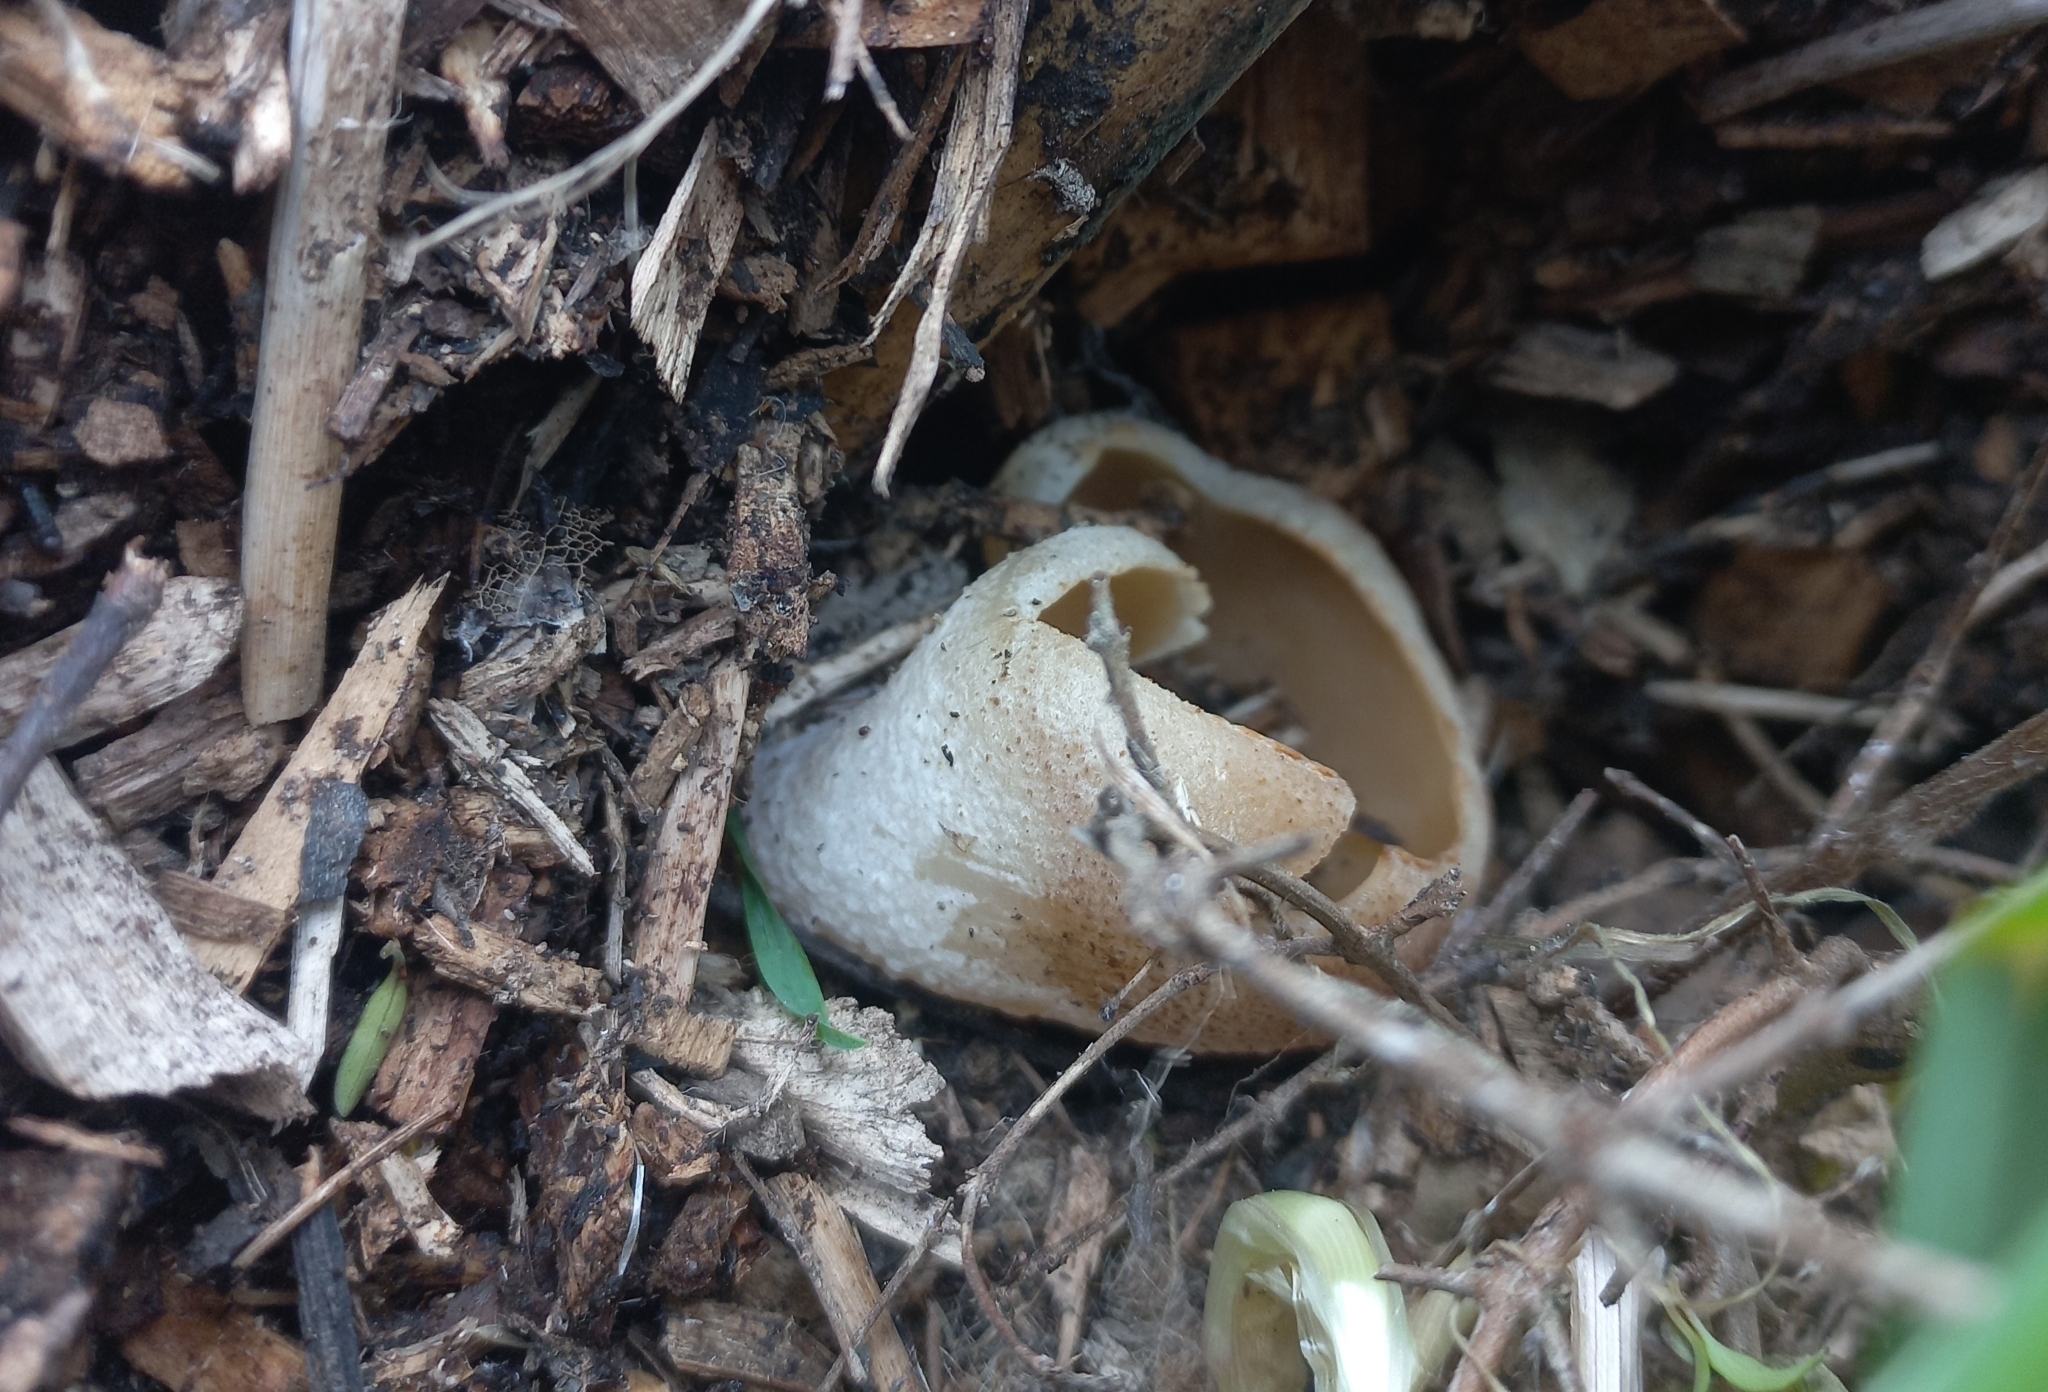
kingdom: Fungi
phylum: Ascomycota
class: Pezizomycetes
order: Pezizales
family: Pezizaceae
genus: Peziza
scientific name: Peziza varia
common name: Layered cup
